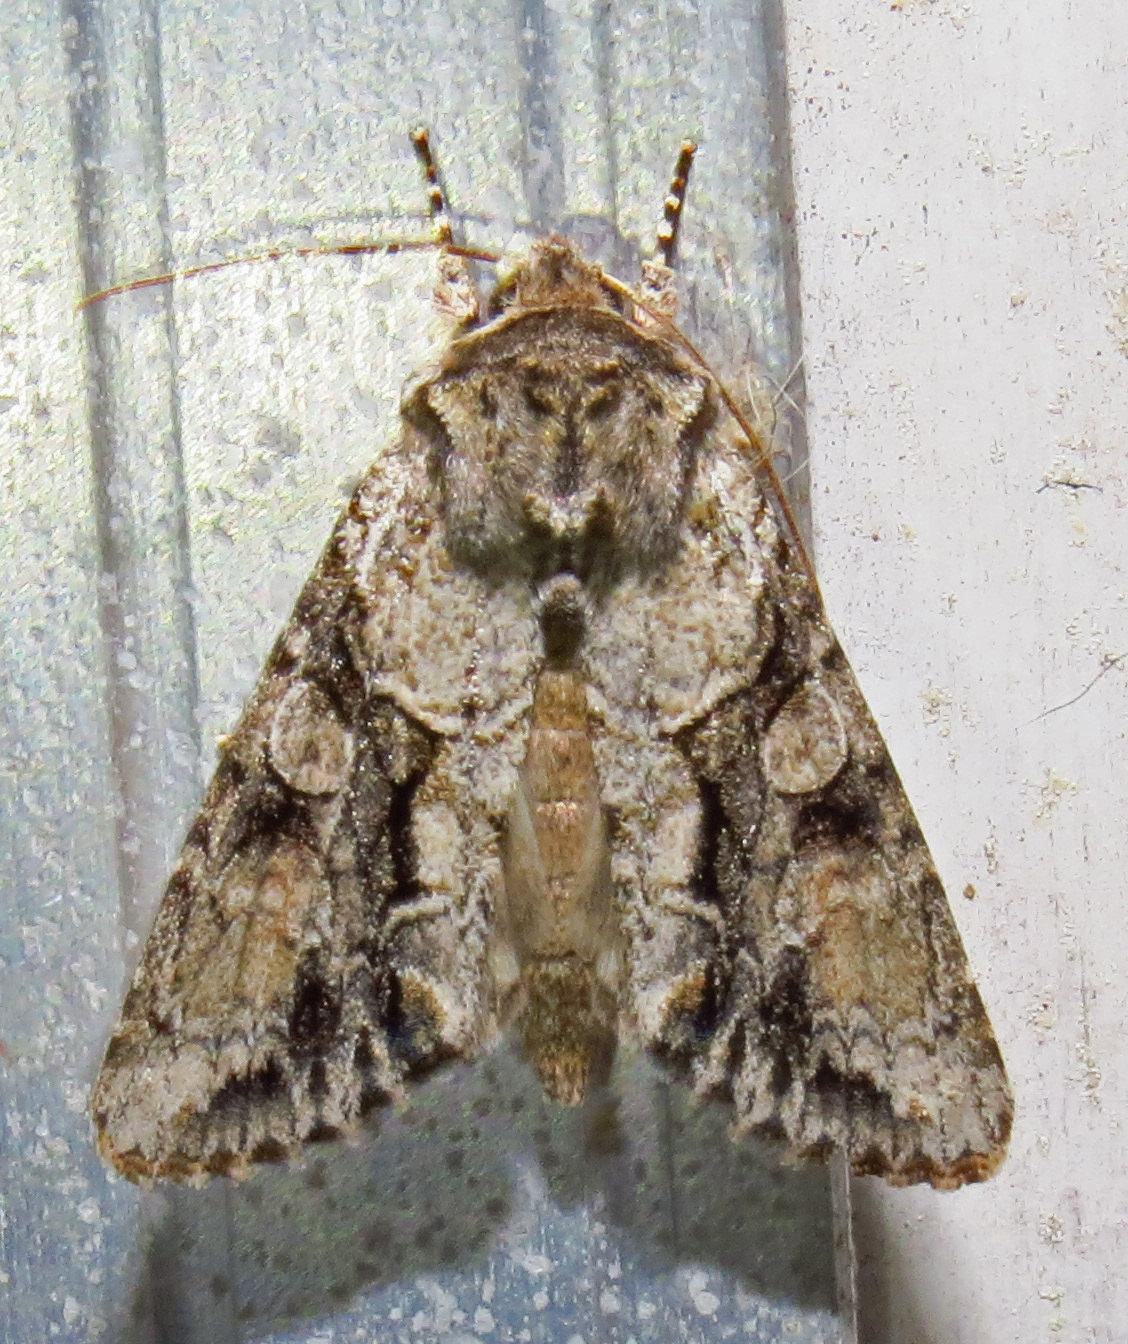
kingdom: Animalia
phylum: Arthropoda
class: Insecta
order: Lepidoptera
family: Noctuidae
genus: Achatia
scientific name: Achatia distincta
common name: Distinct quaker
